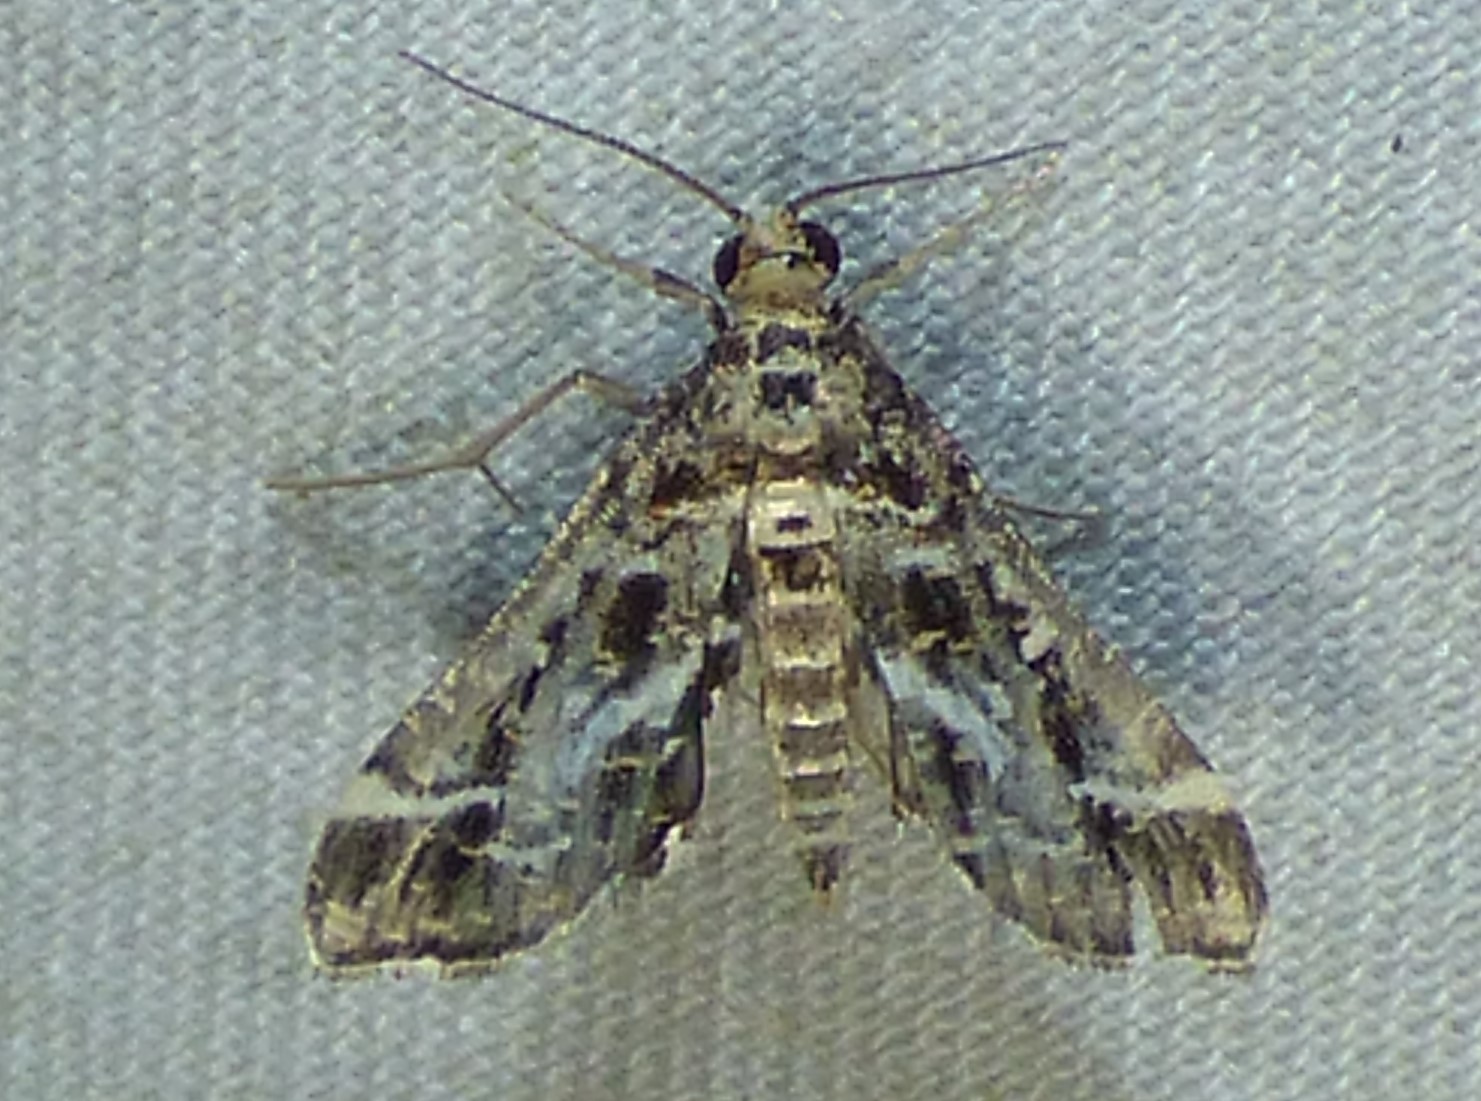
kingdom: Animalia
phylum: Arthropoda
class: Insecta
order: Lepidoptera
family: Crambidae
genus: Diasemiopsis
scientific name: Diasemiopsis ramburialis
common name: Vagrant china-mark
